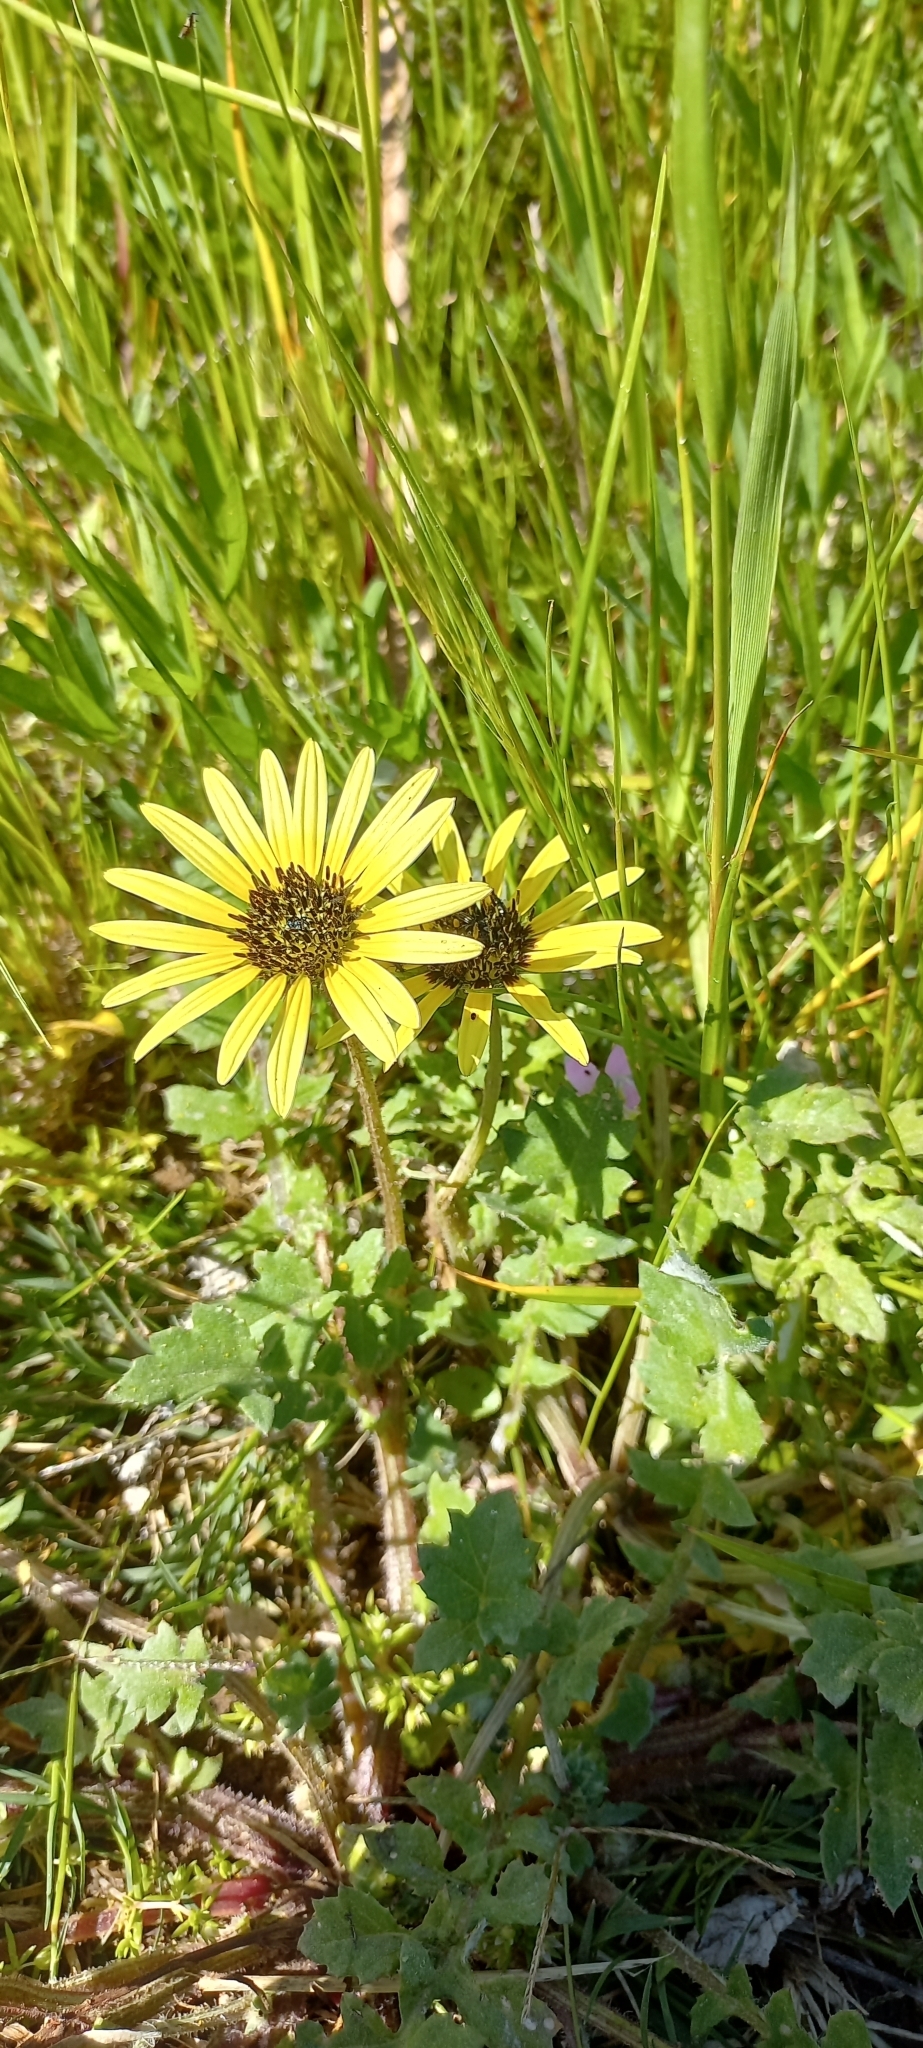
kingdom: Plantae
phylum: Tracheophyta
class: Magnoliopsida
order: Asterales
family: Asteraceae
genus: Arctotheca
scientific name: Arctotheca calendula
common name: Capeweed
